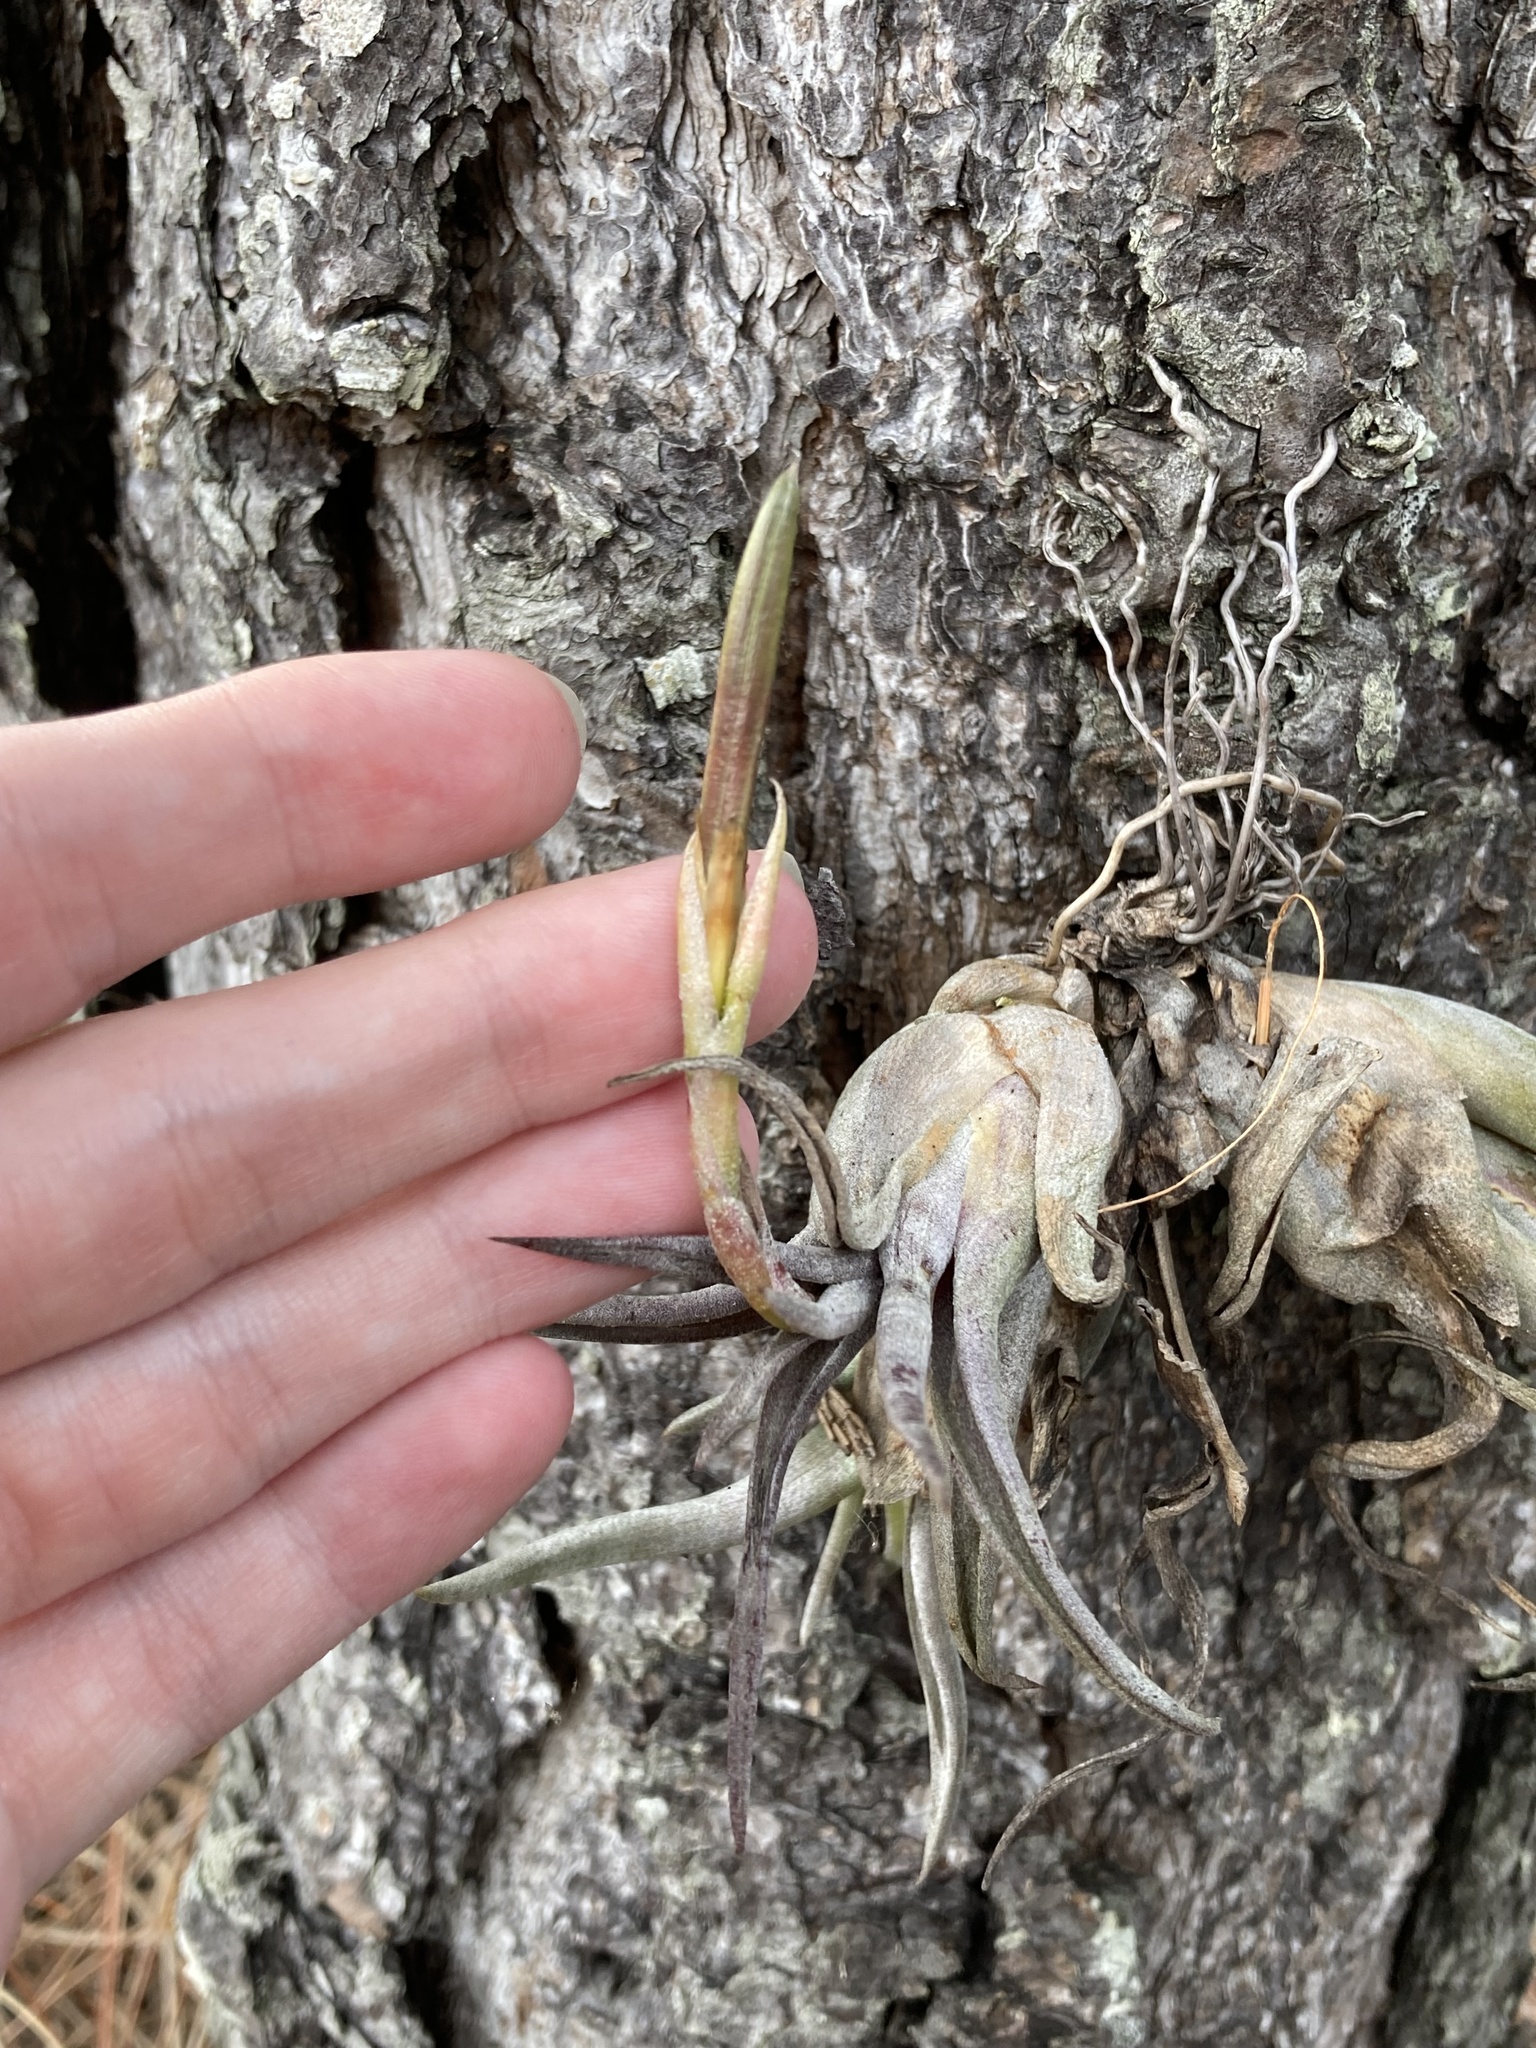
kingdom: Plantae
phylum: Tracheophyta
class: Liliopsida
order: Poales
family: Bromeliaceae
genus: Tillandsia
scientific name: Tillandsia paucifolia
